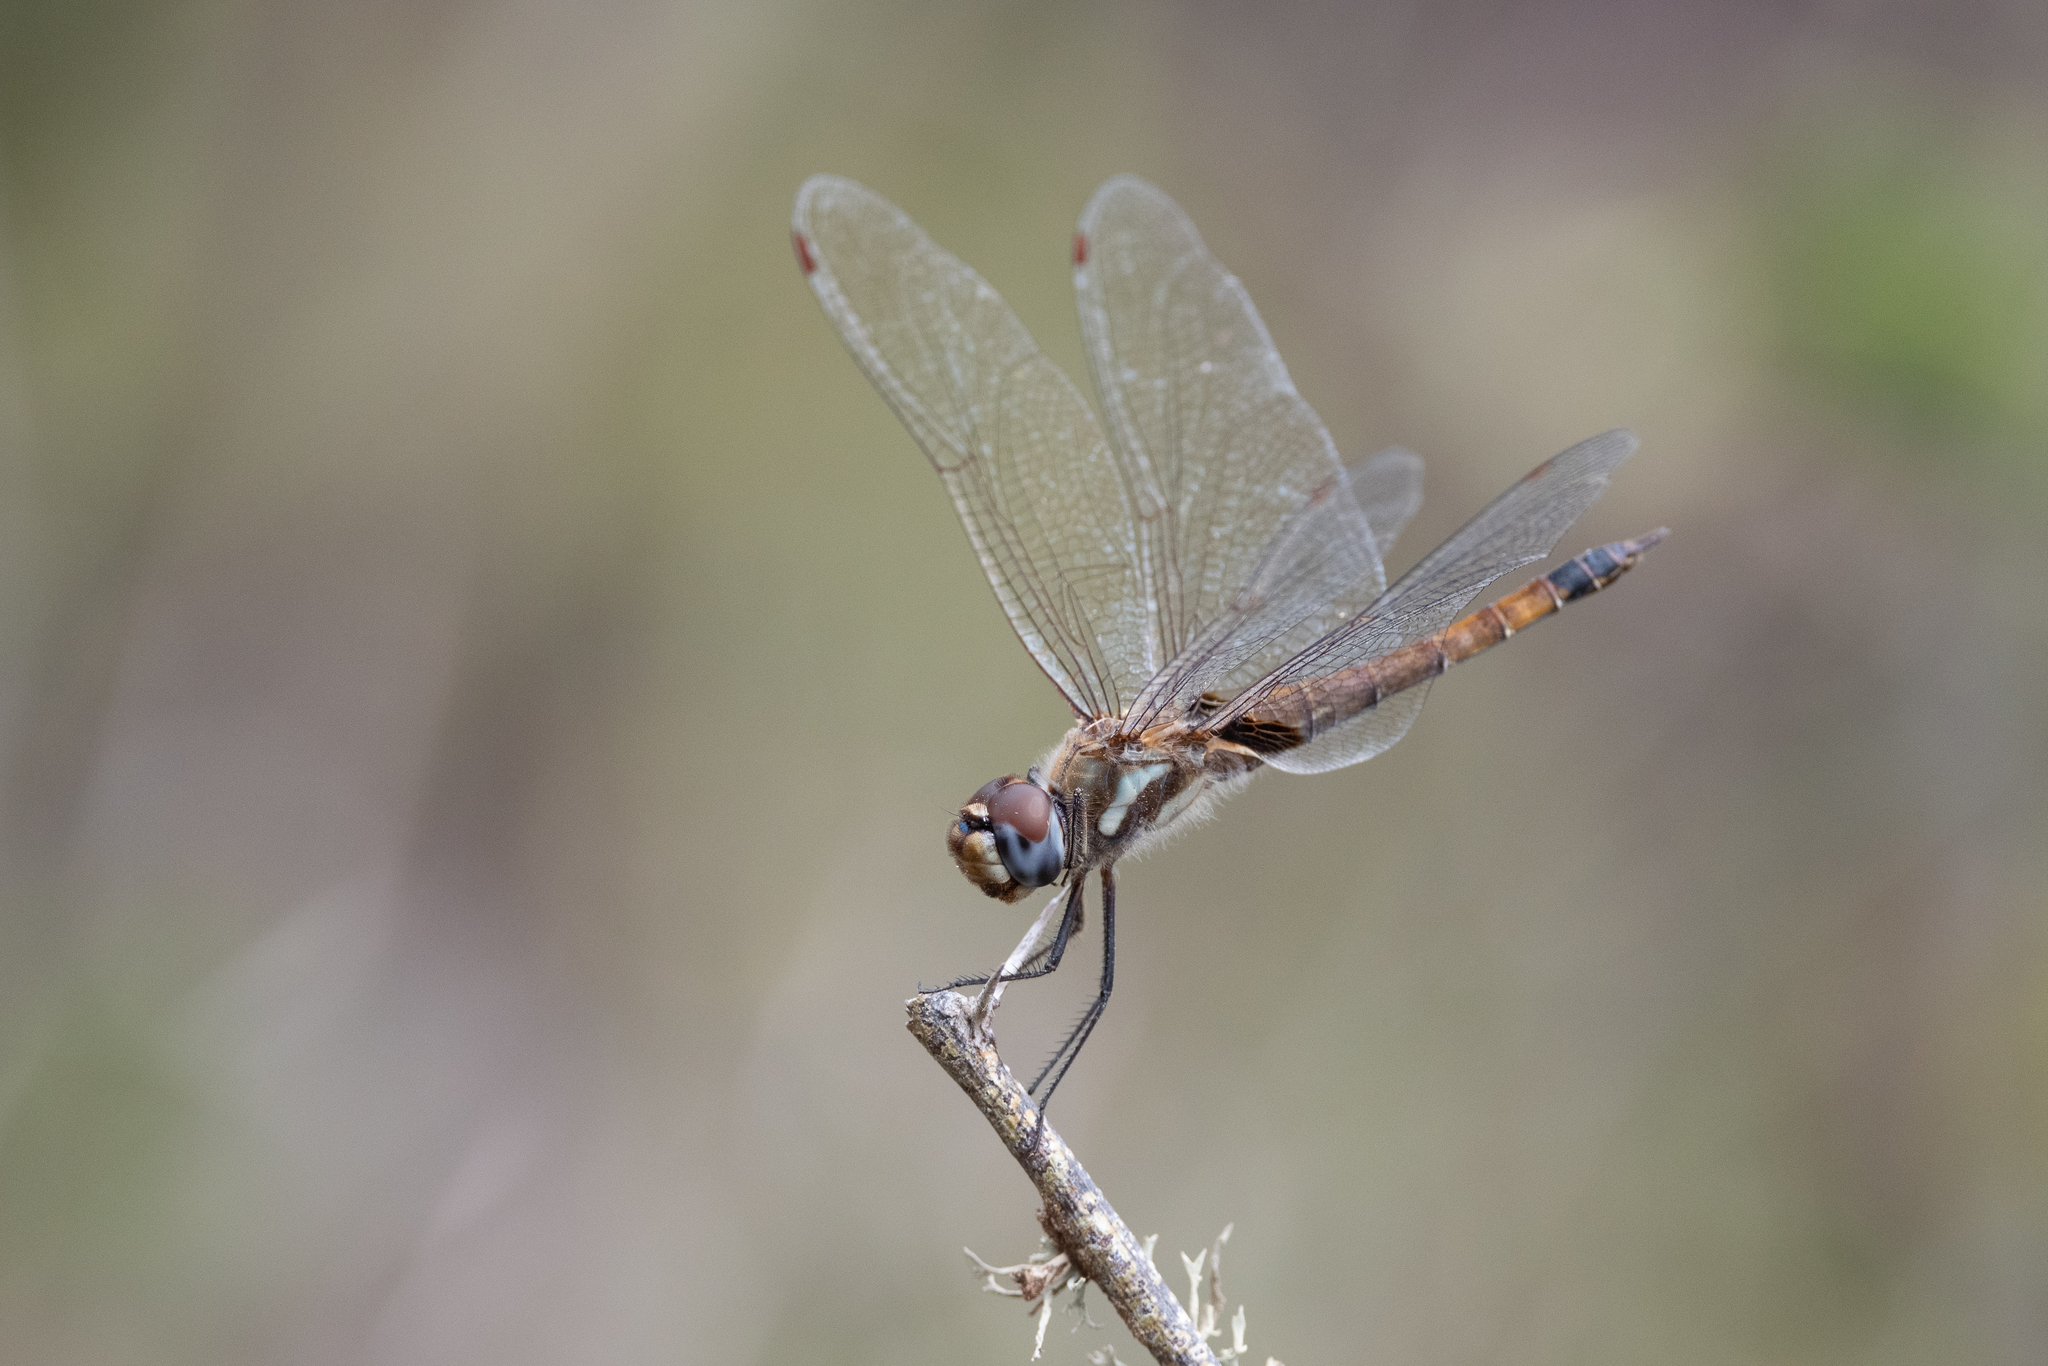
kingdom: Animalia
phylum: Arthropoda
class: Insecta
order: Odonata
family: Libellulidae
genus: Tramea
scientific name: Tramea darwini
